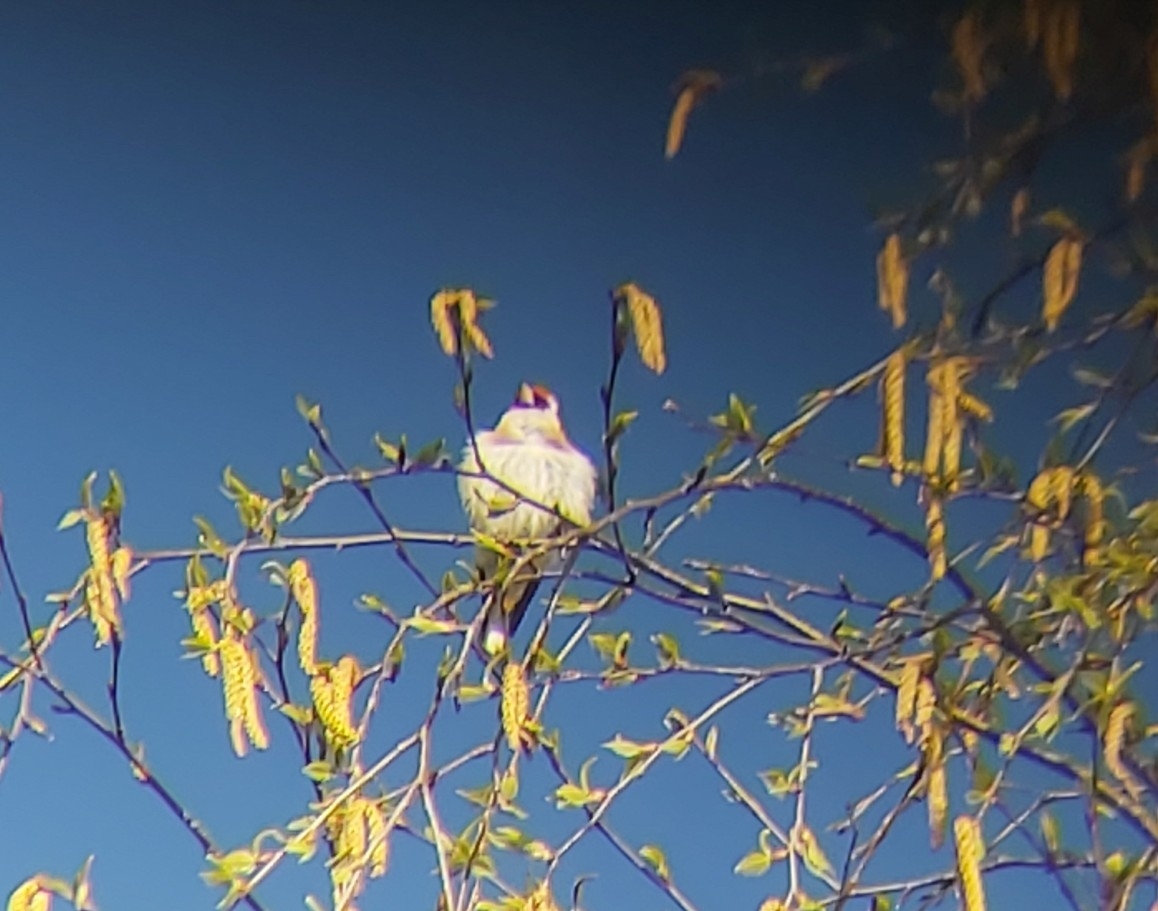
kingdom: Animalia
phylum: Chordata
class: Aves
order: Passeriformes
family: Fringillidae
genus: Carduelis
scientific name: Carduelis carduelis
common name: European goldfinch
